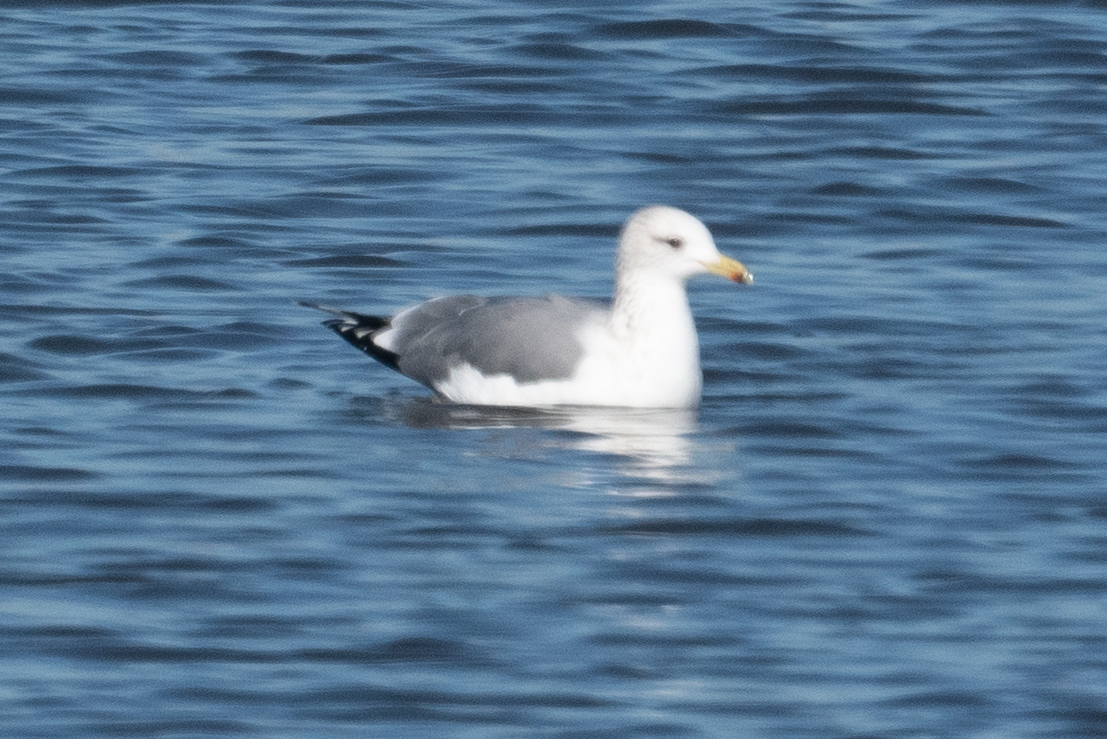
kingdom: Animalia
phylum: Chordata
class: Aves
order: Charadriiformes
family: Laridae
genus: Larus
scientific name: Larus californicus
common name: California gull
